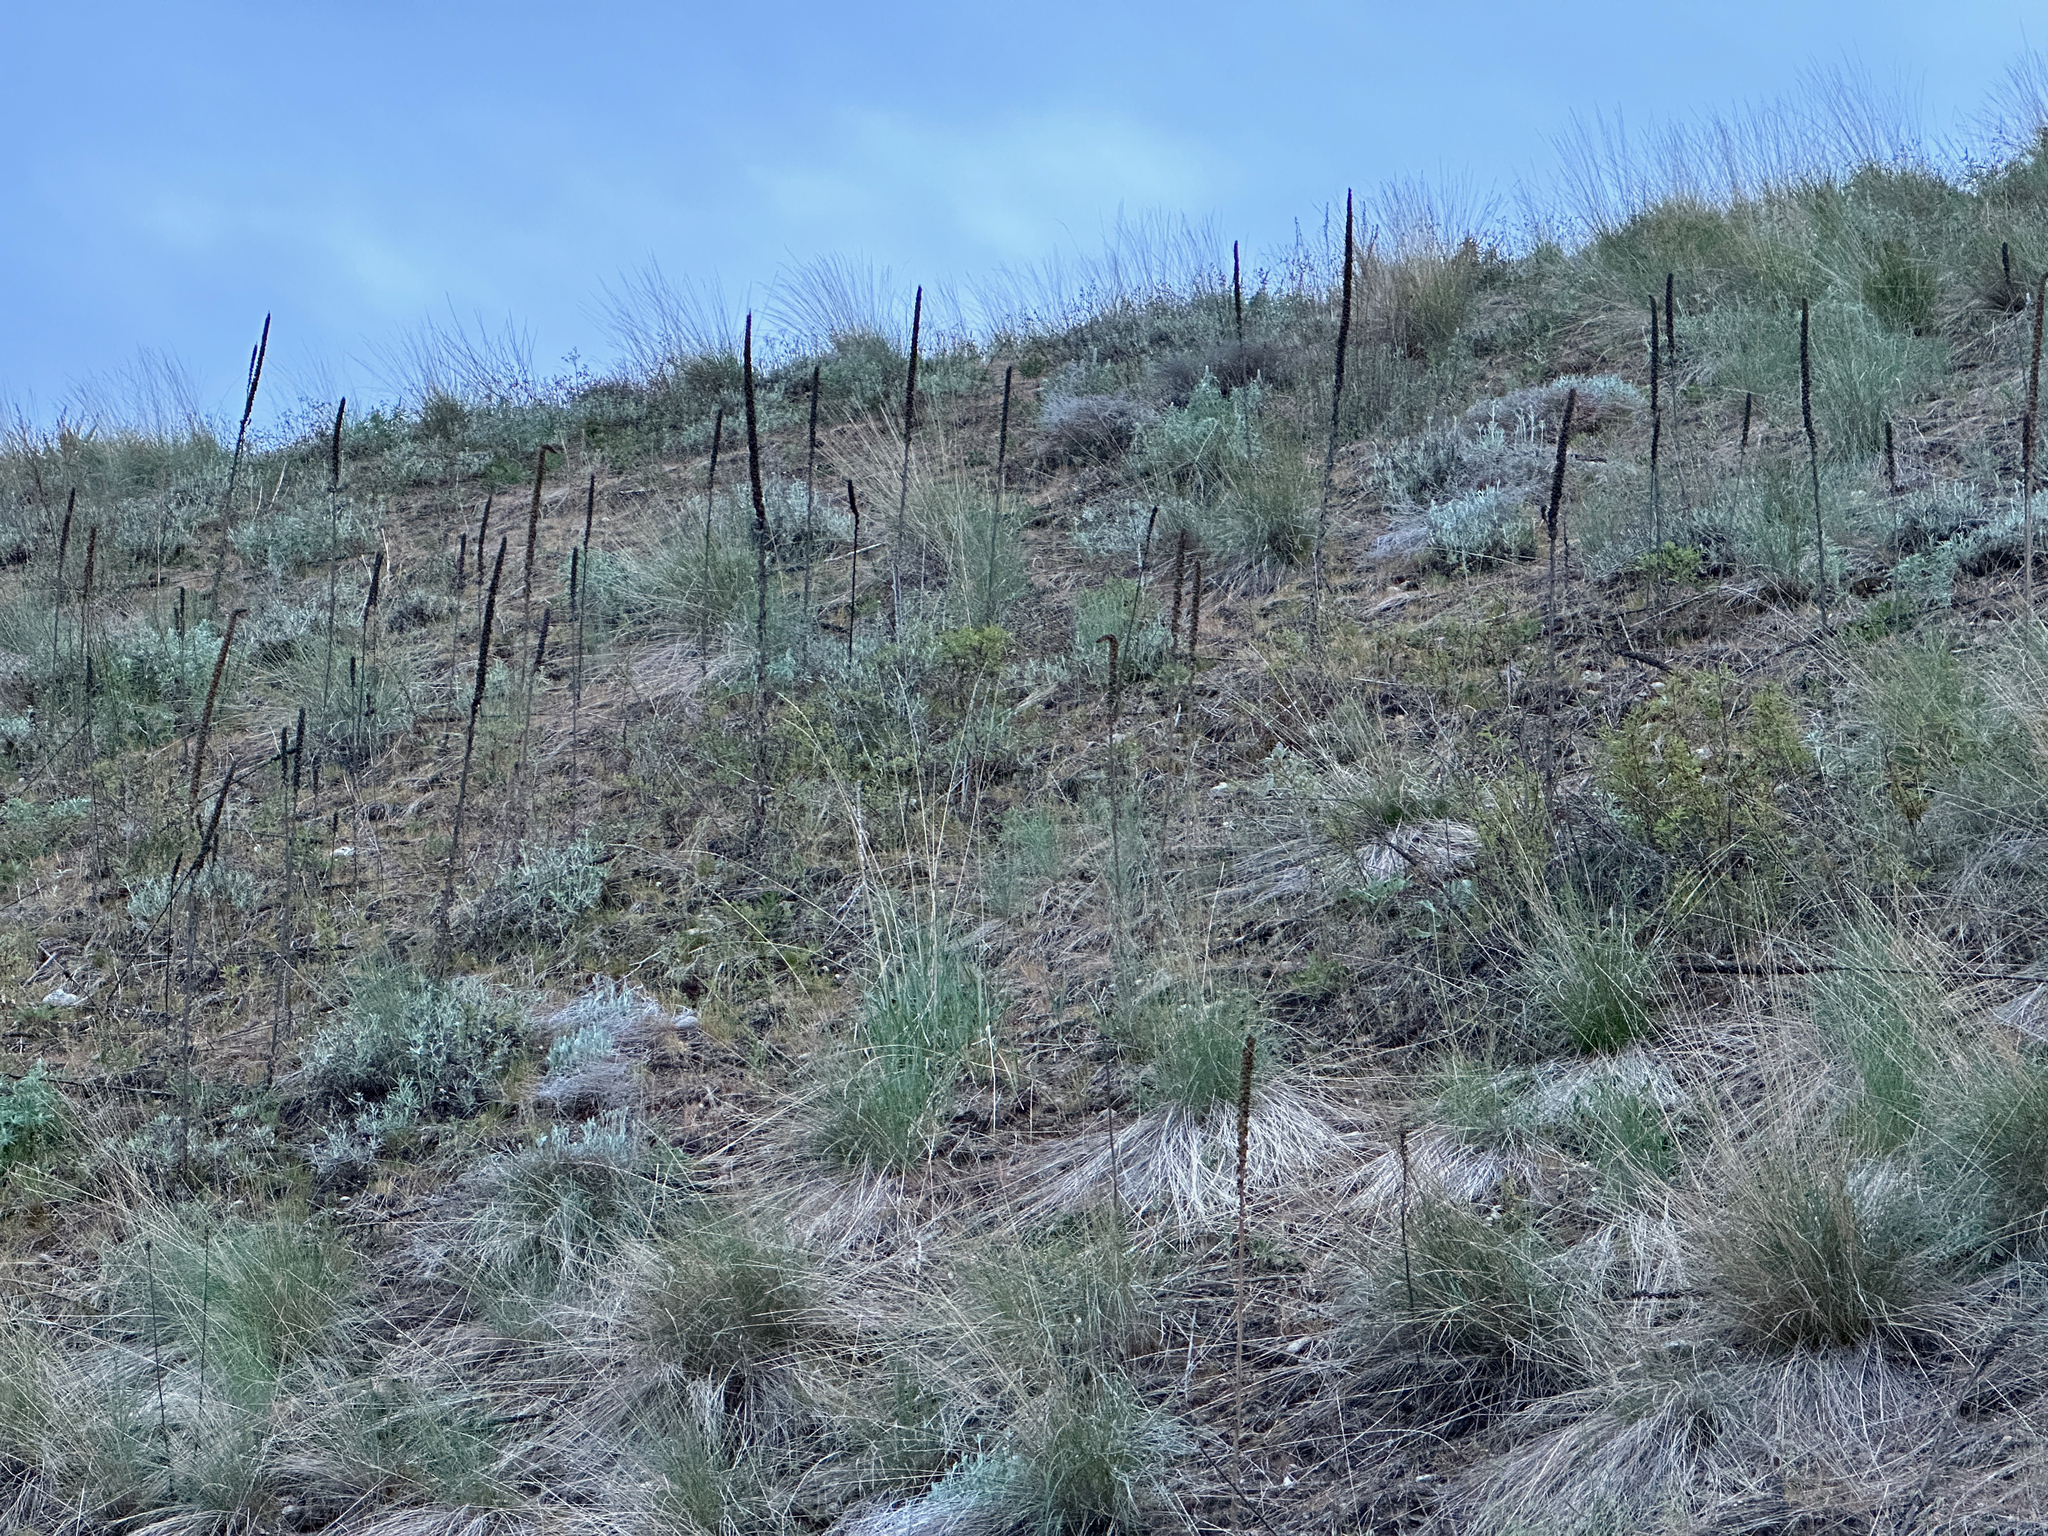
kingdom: Plantae
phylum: Tracheophyta
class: Magnoliopsida
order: Lamiales
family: Scrophulariaceae
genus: Verbascum
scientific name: Verbascum thapsus
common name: Common mullein
